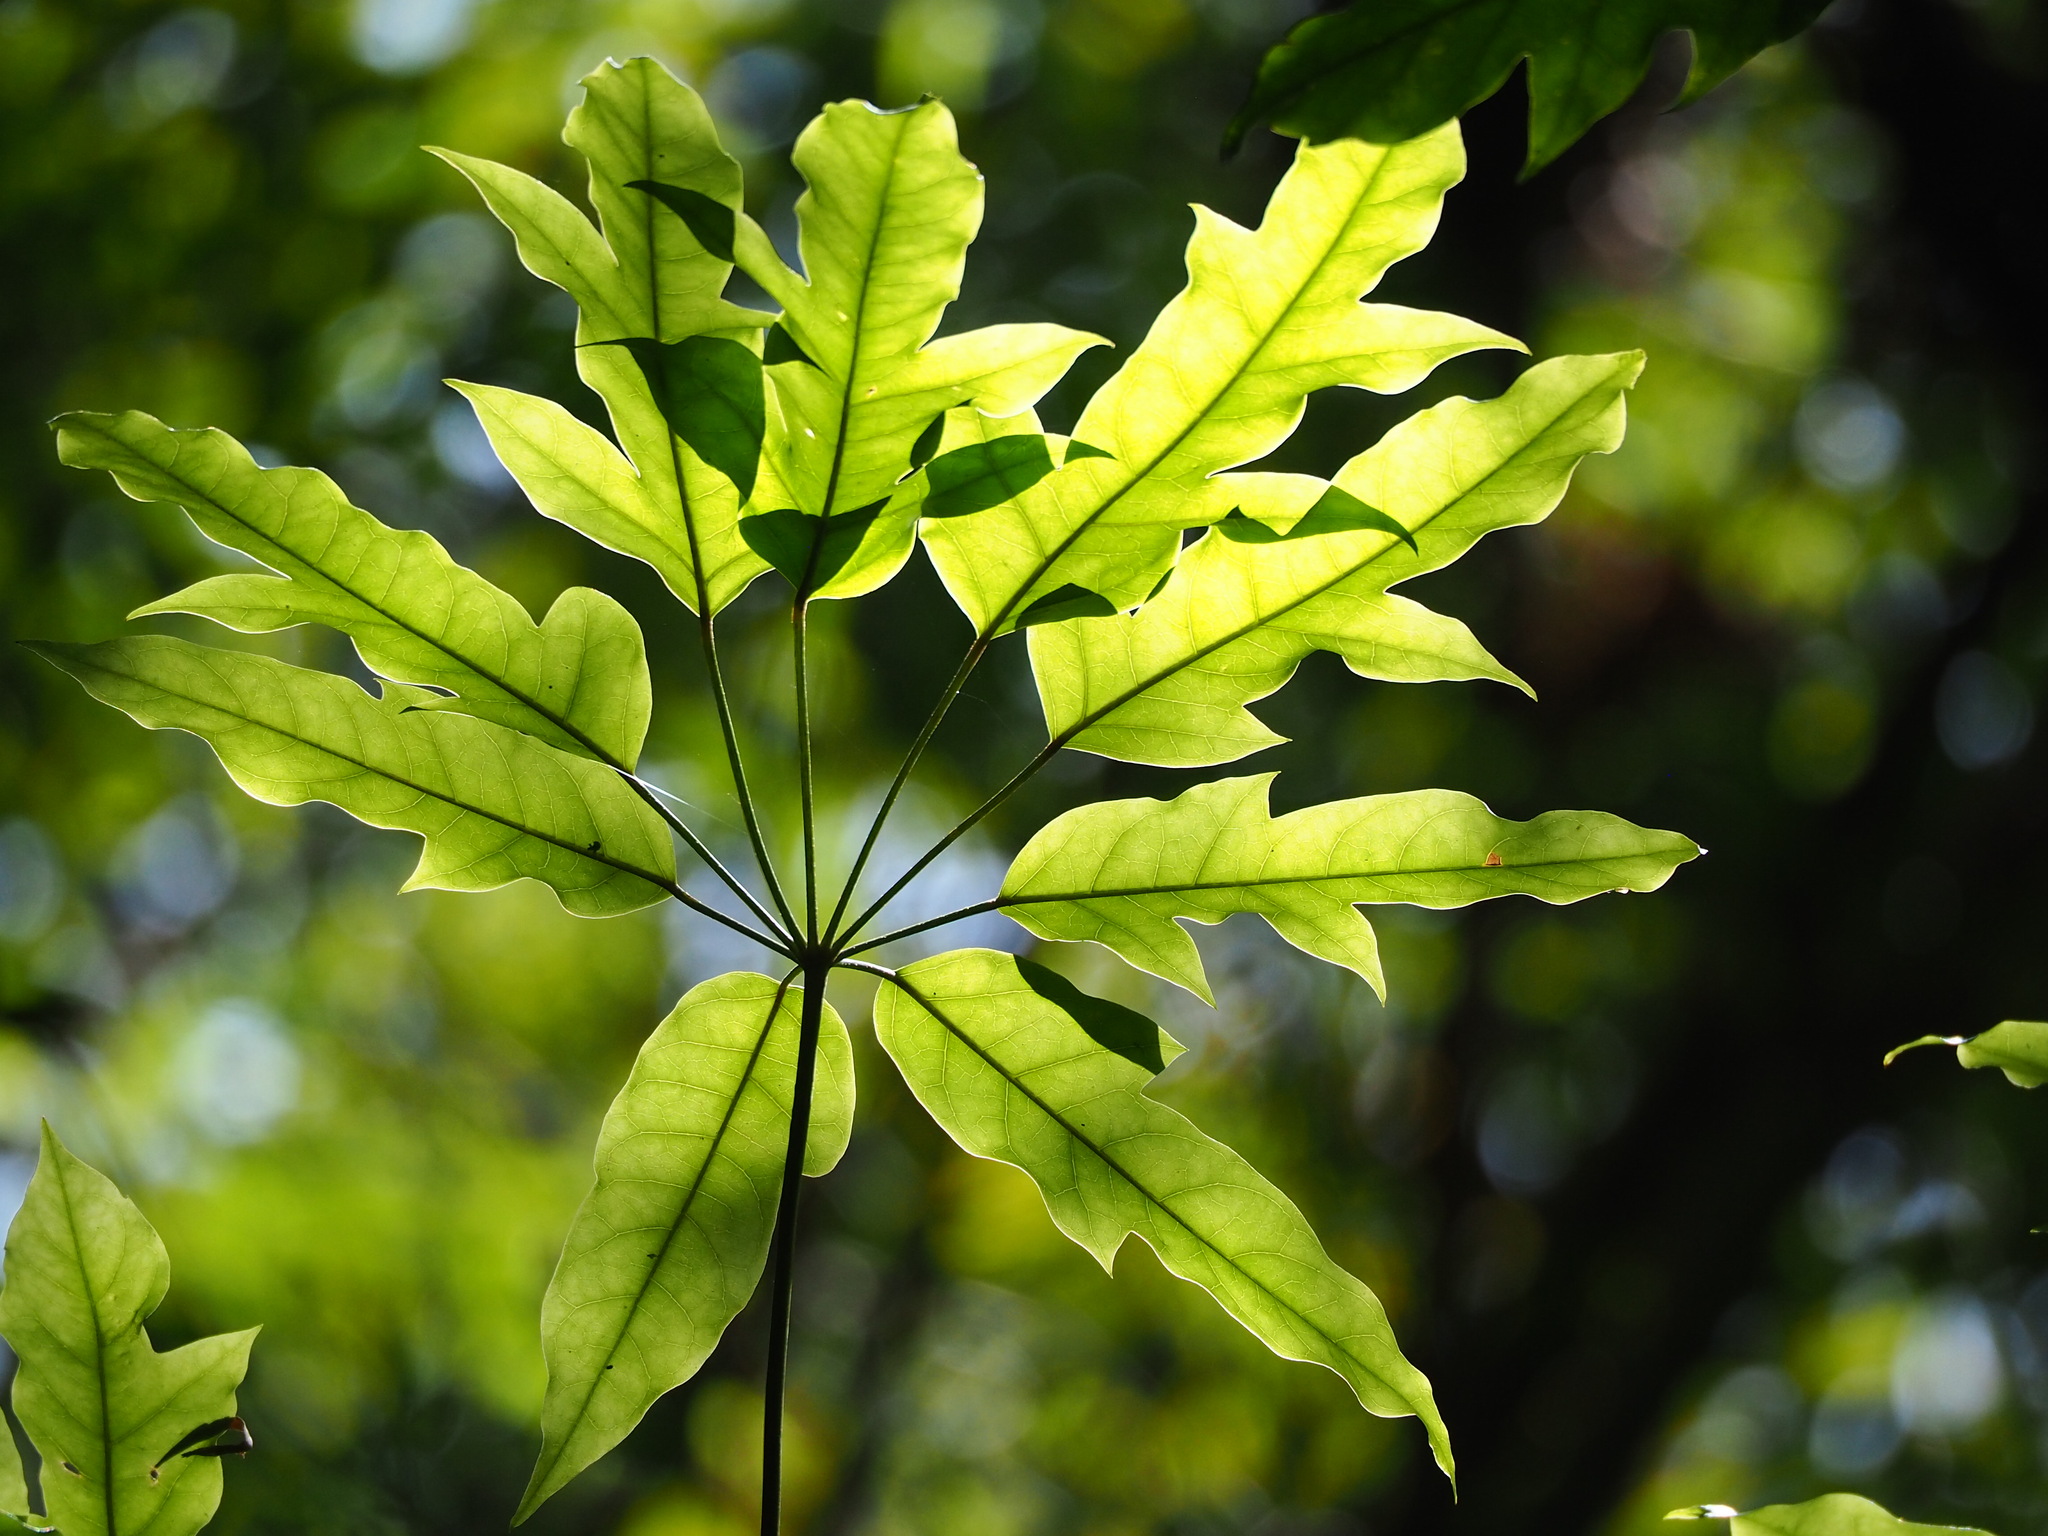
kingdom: Plantae
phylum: Tracheophyta
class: Magnoliopsida
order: Apiales
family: Araliaceae
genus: Heptapleurum
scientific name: Heptapleurum heptaphyllum
